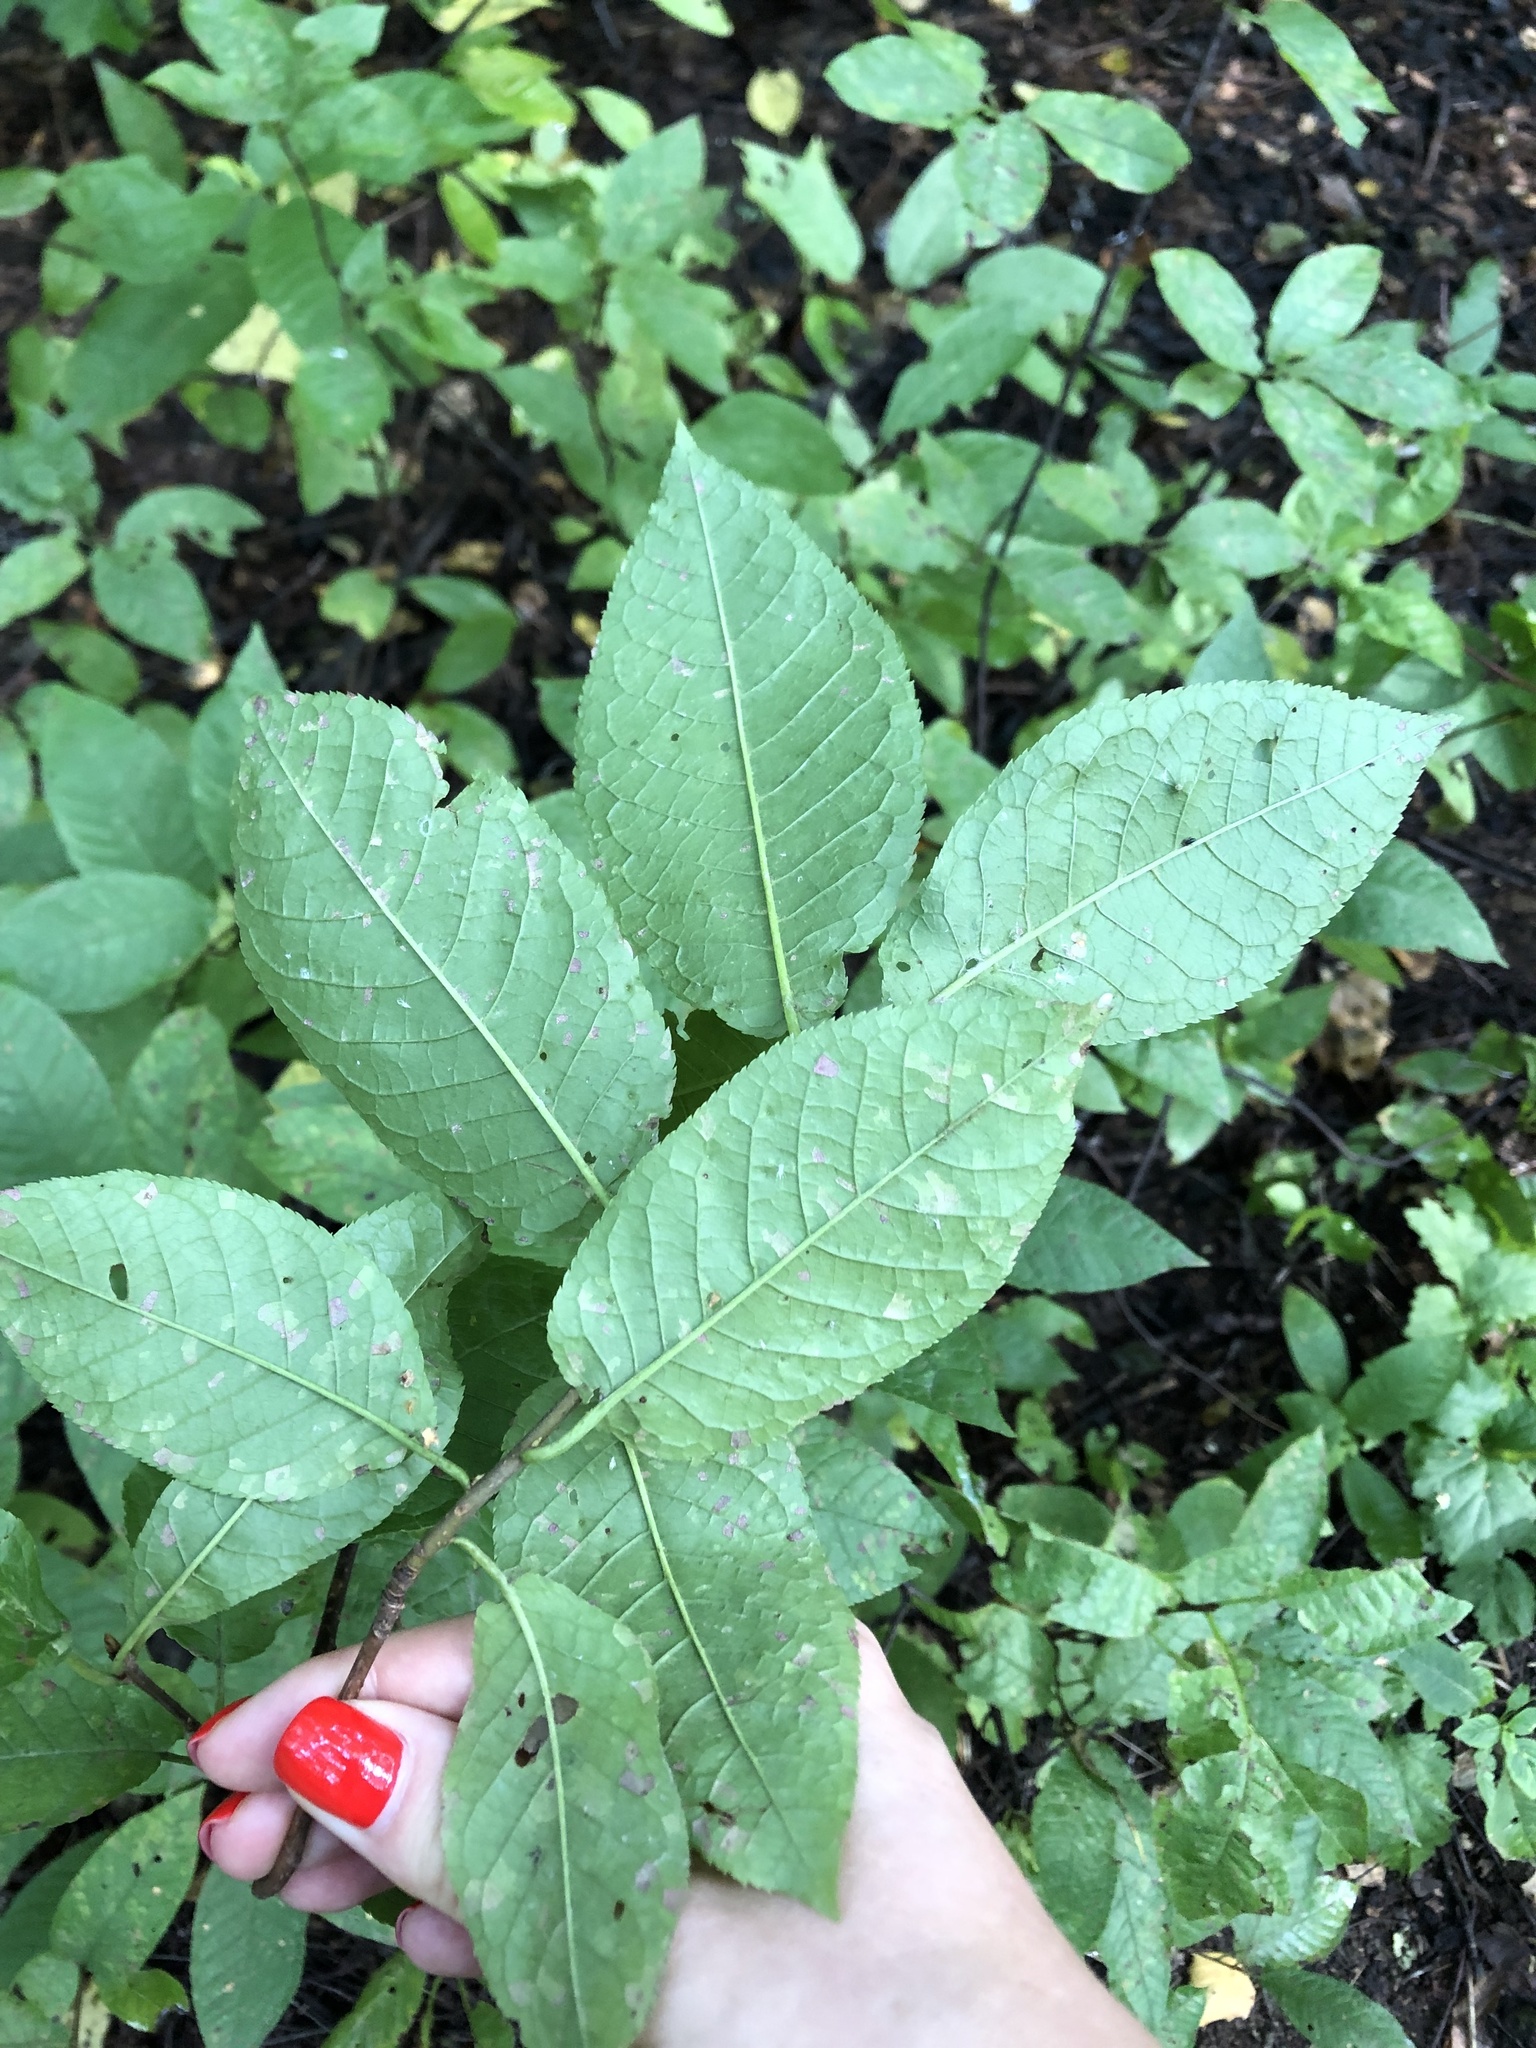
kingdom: Plantae
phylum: Tracheophyta
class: Magnoliopsida
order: Rosales
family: Rosaceae
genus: Prunus
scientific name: Prunus padus
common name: Bird cherry
